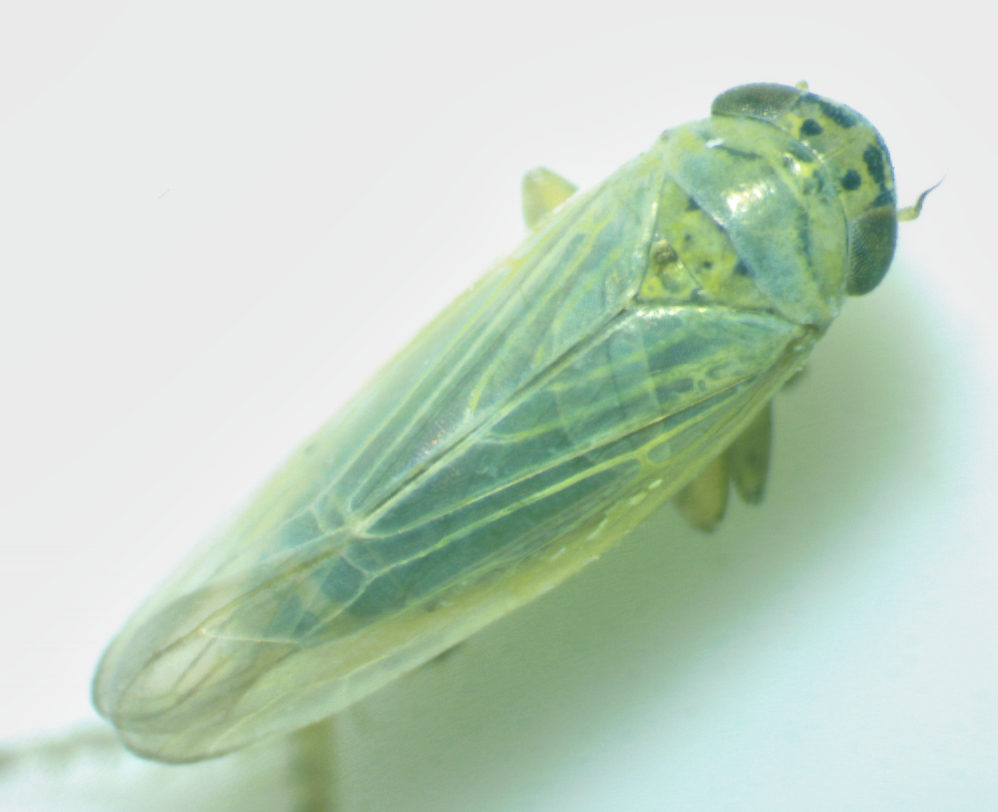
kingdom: Animalia
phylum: Arthropoda
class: Insecta
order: Hemiptera
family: Cicadellidae
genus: Macrosteles
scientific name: Macrosteles quadrilineatus
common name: Aster leafhopper
